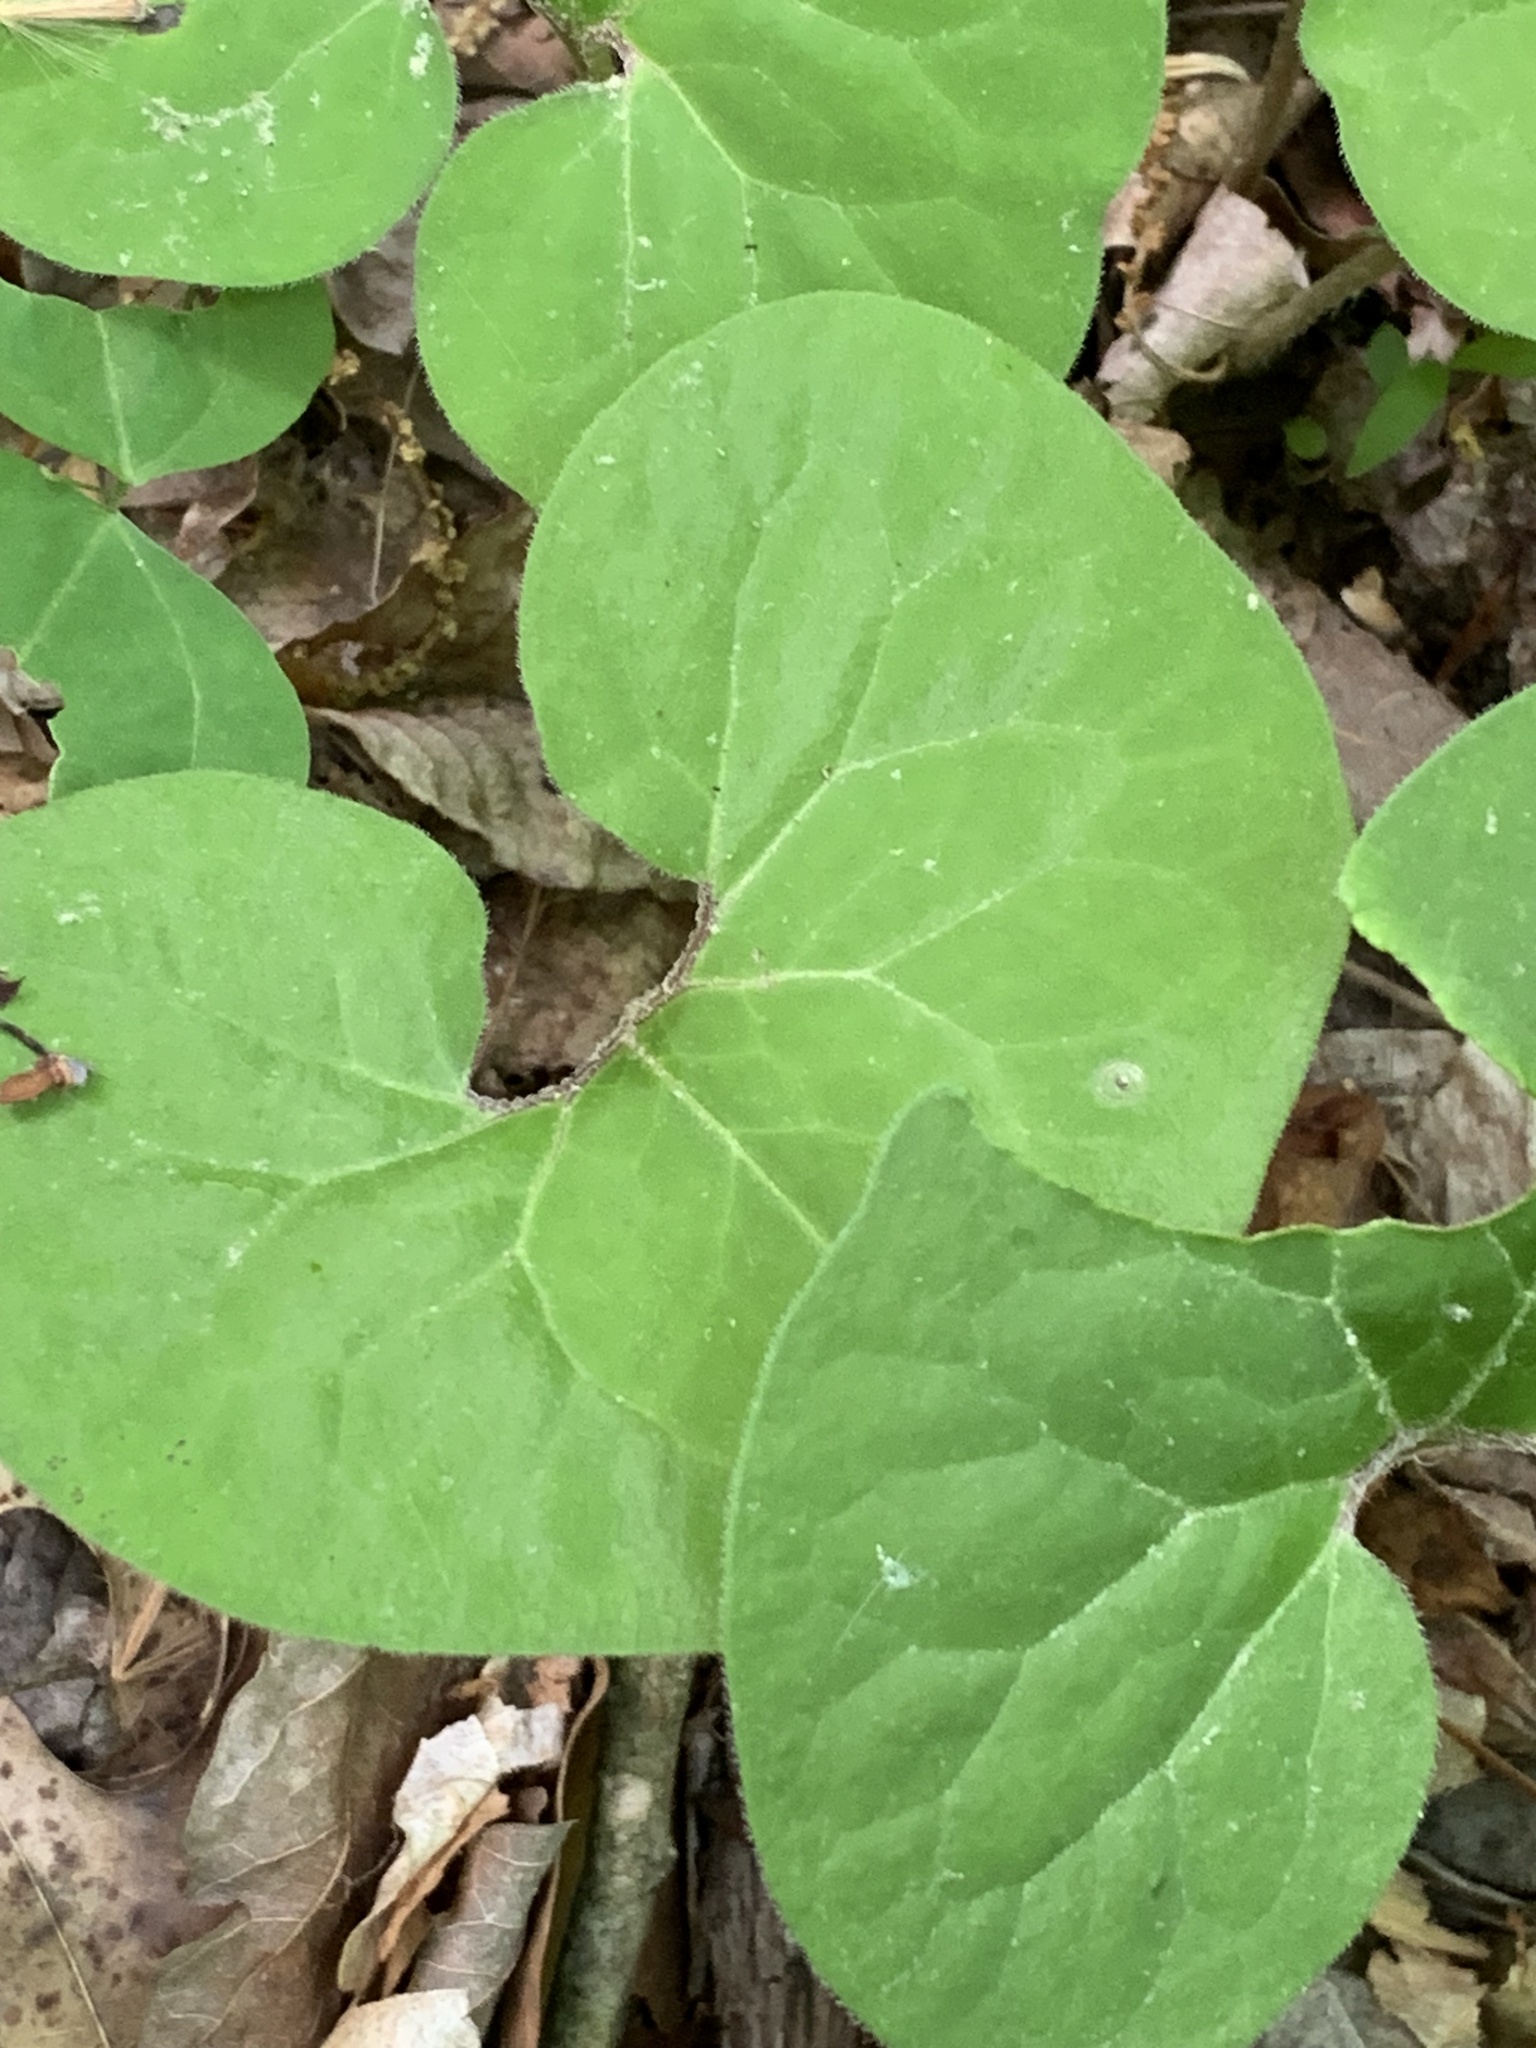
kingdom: Plantae
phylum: Tracheophyta
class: Magnoliopsida
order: Piperales
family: Aristolochiaceae
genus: Asarum
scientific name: Asarum canadense
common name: Wild ginger
